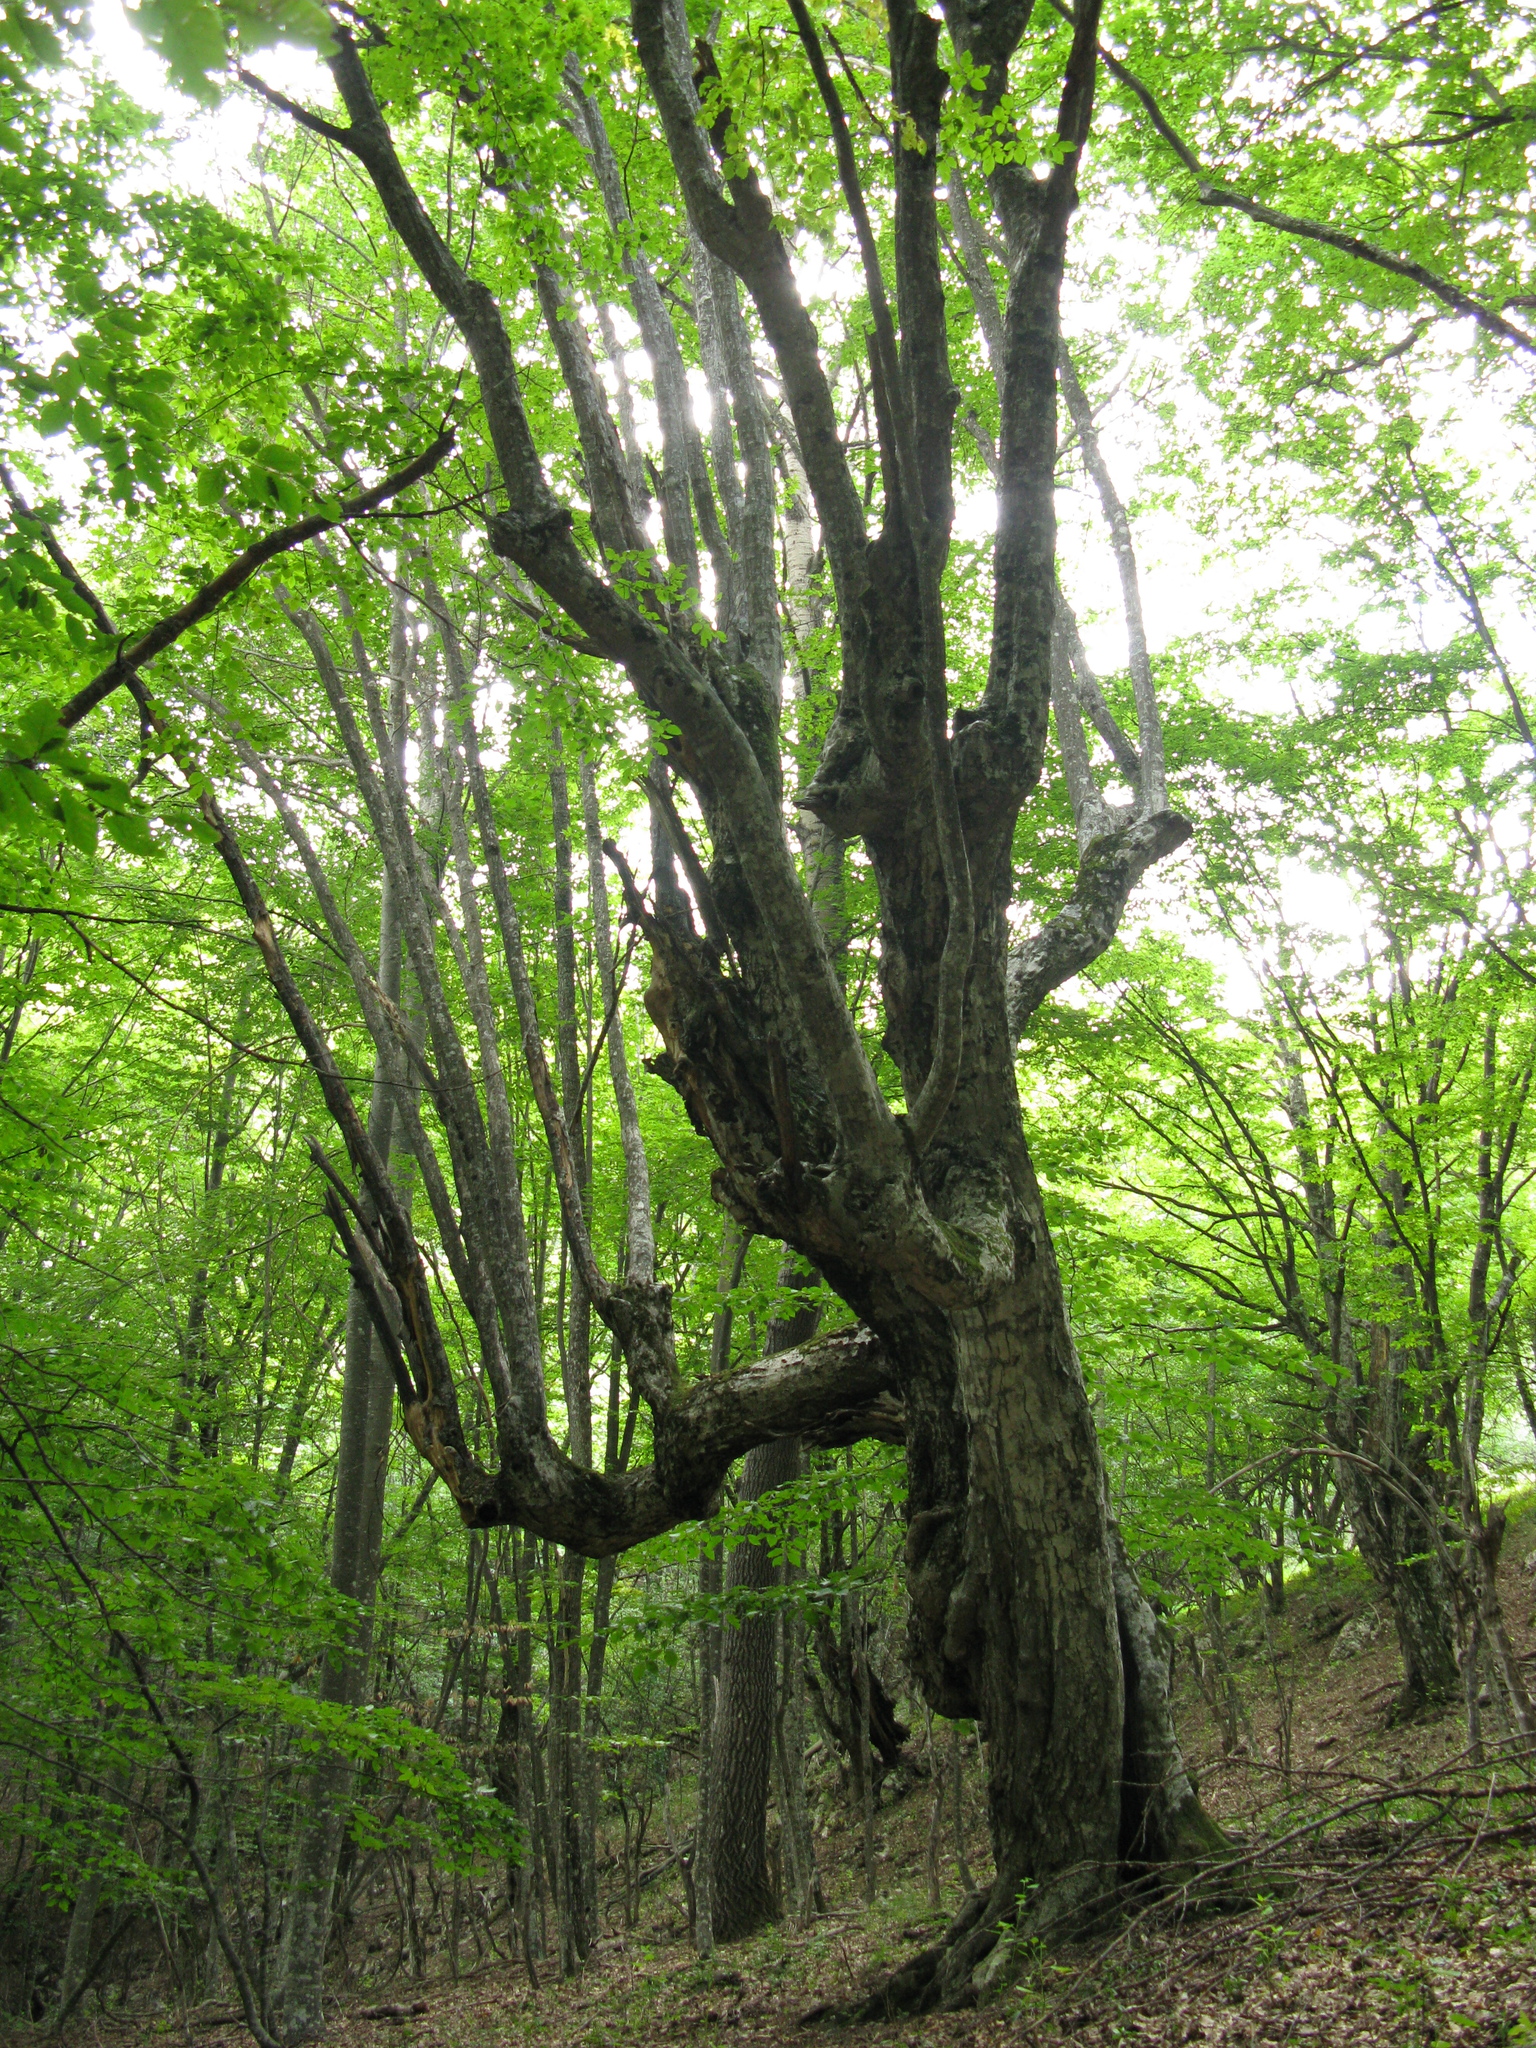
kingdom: Plantae
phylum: Tracheophyta
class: Magnoliopsida
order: Fagales
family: Fagaceae
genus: Fagus
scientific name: Fagus taurica
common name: Crimean beech
